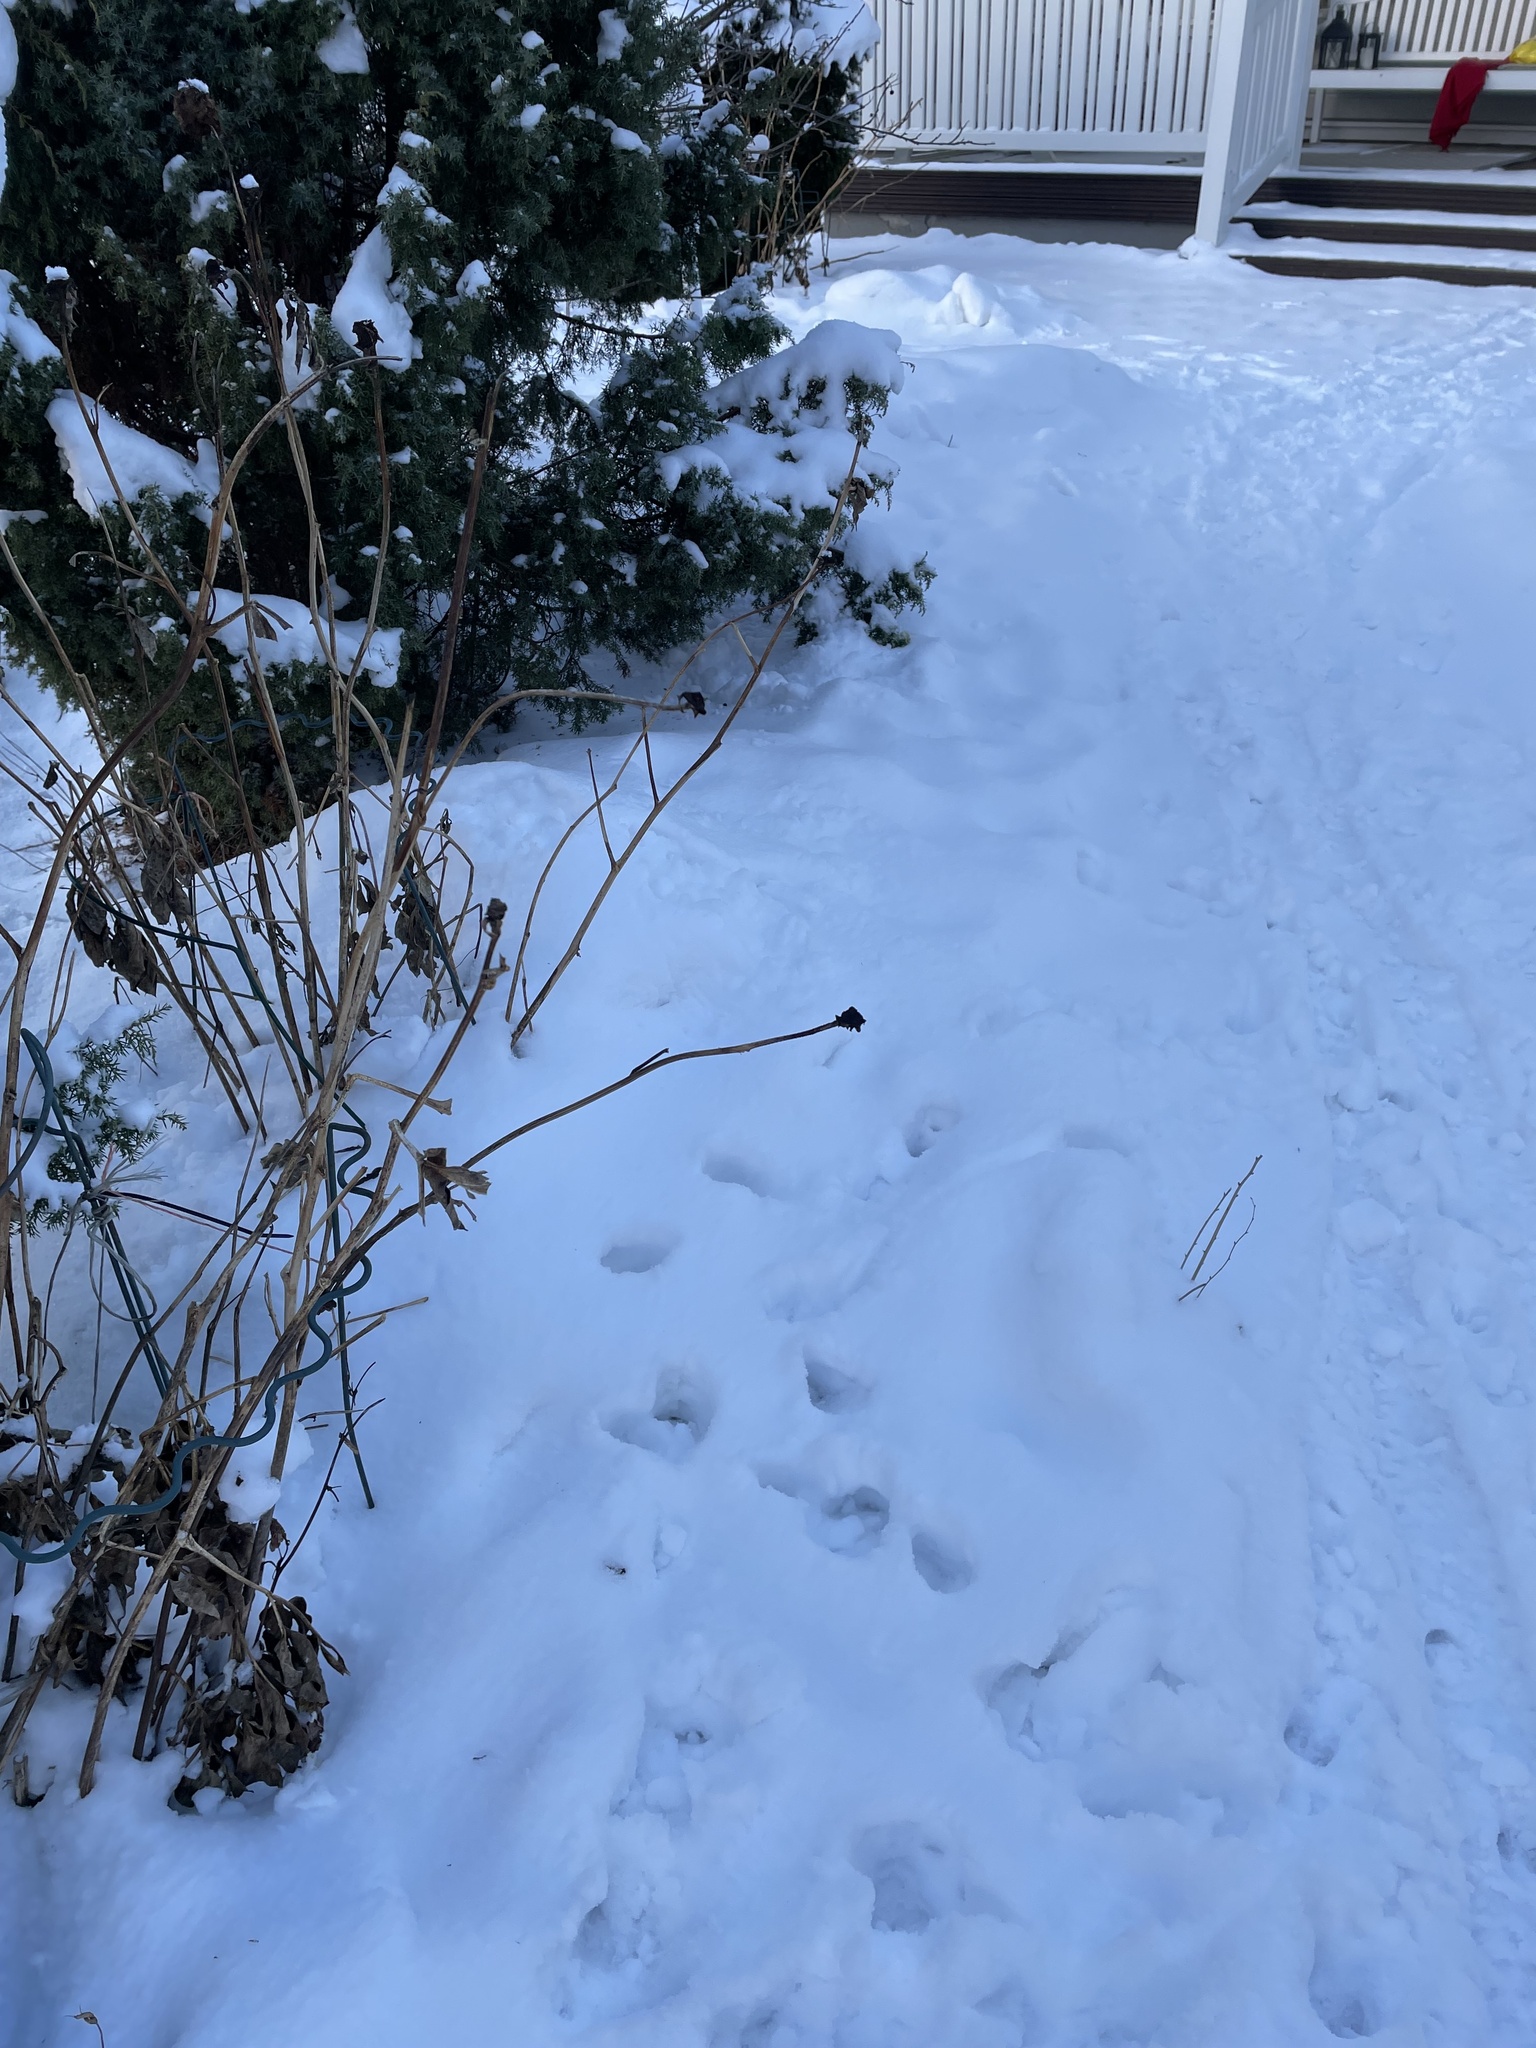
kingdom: Animalia
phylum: Chordata
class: Mammalia
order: Artiodactyla
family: Cervidae
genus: Capreolus
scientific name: Capreolus capreolus
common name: Western roe deer
